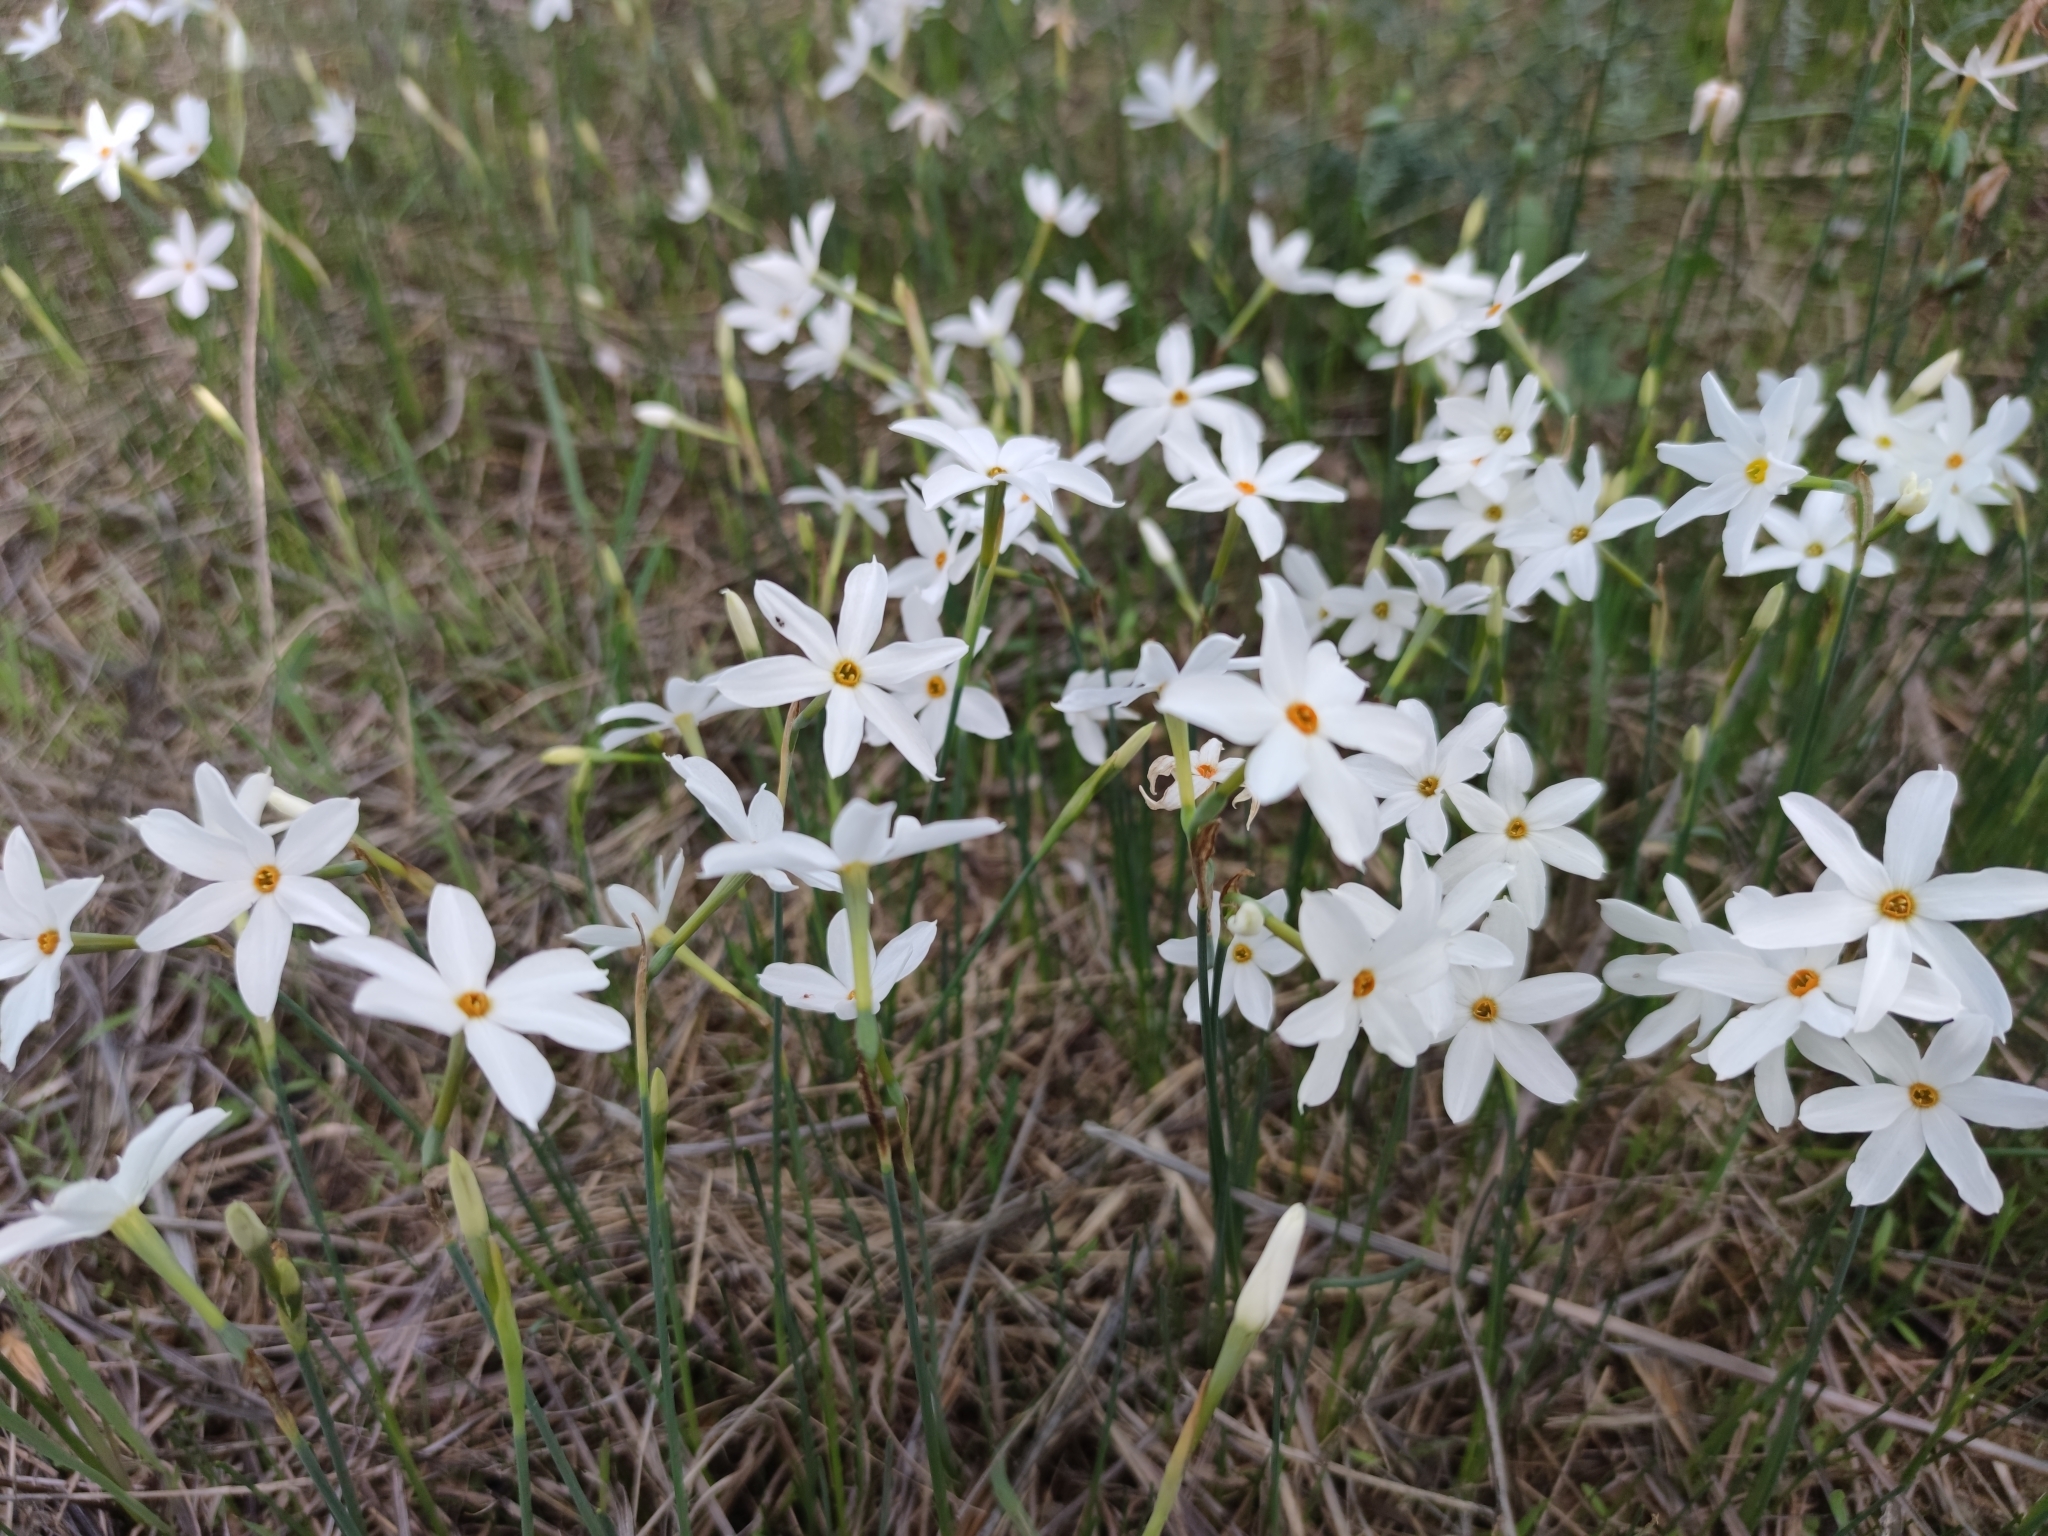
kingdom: Plantae
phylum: Tracheophyta
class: Liliopsida
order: Asparagales
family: Amaryllidaceae
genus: Narcissus
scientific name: Narcissus deficiens
